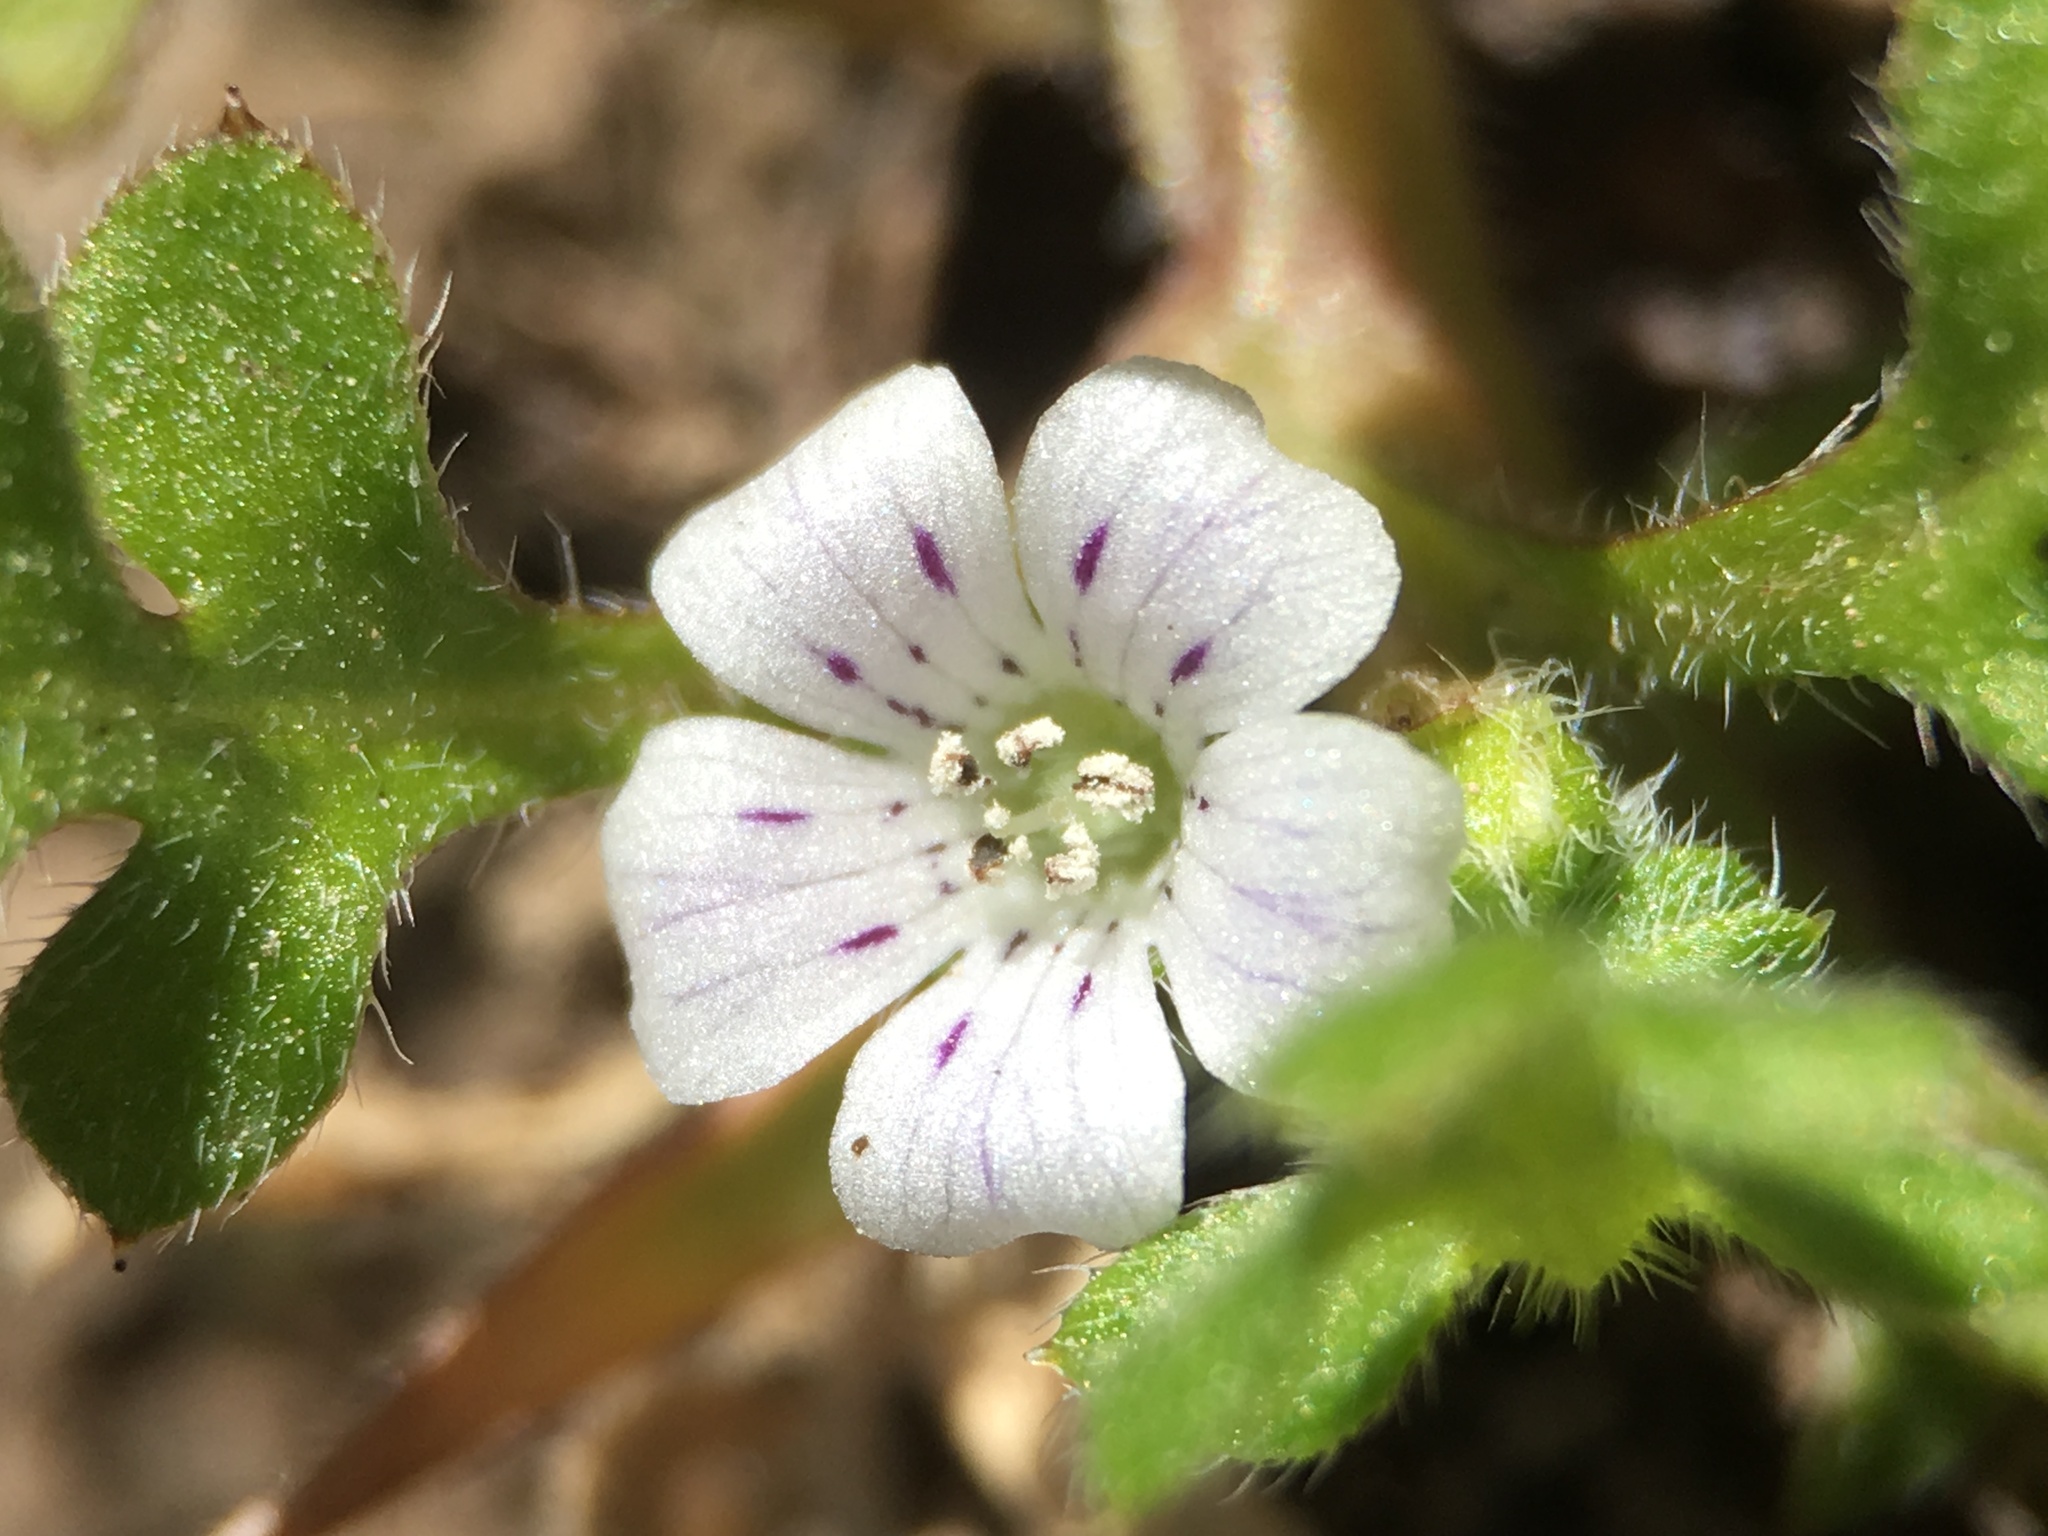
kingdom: Plantae
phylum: Tracheophyta
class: Magnoliopsida
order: Boraginales
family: Hydrophyllaceae
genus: Nemophila
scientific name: Nemophila pedunculata
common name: Little-foot baby-blue-eyes
